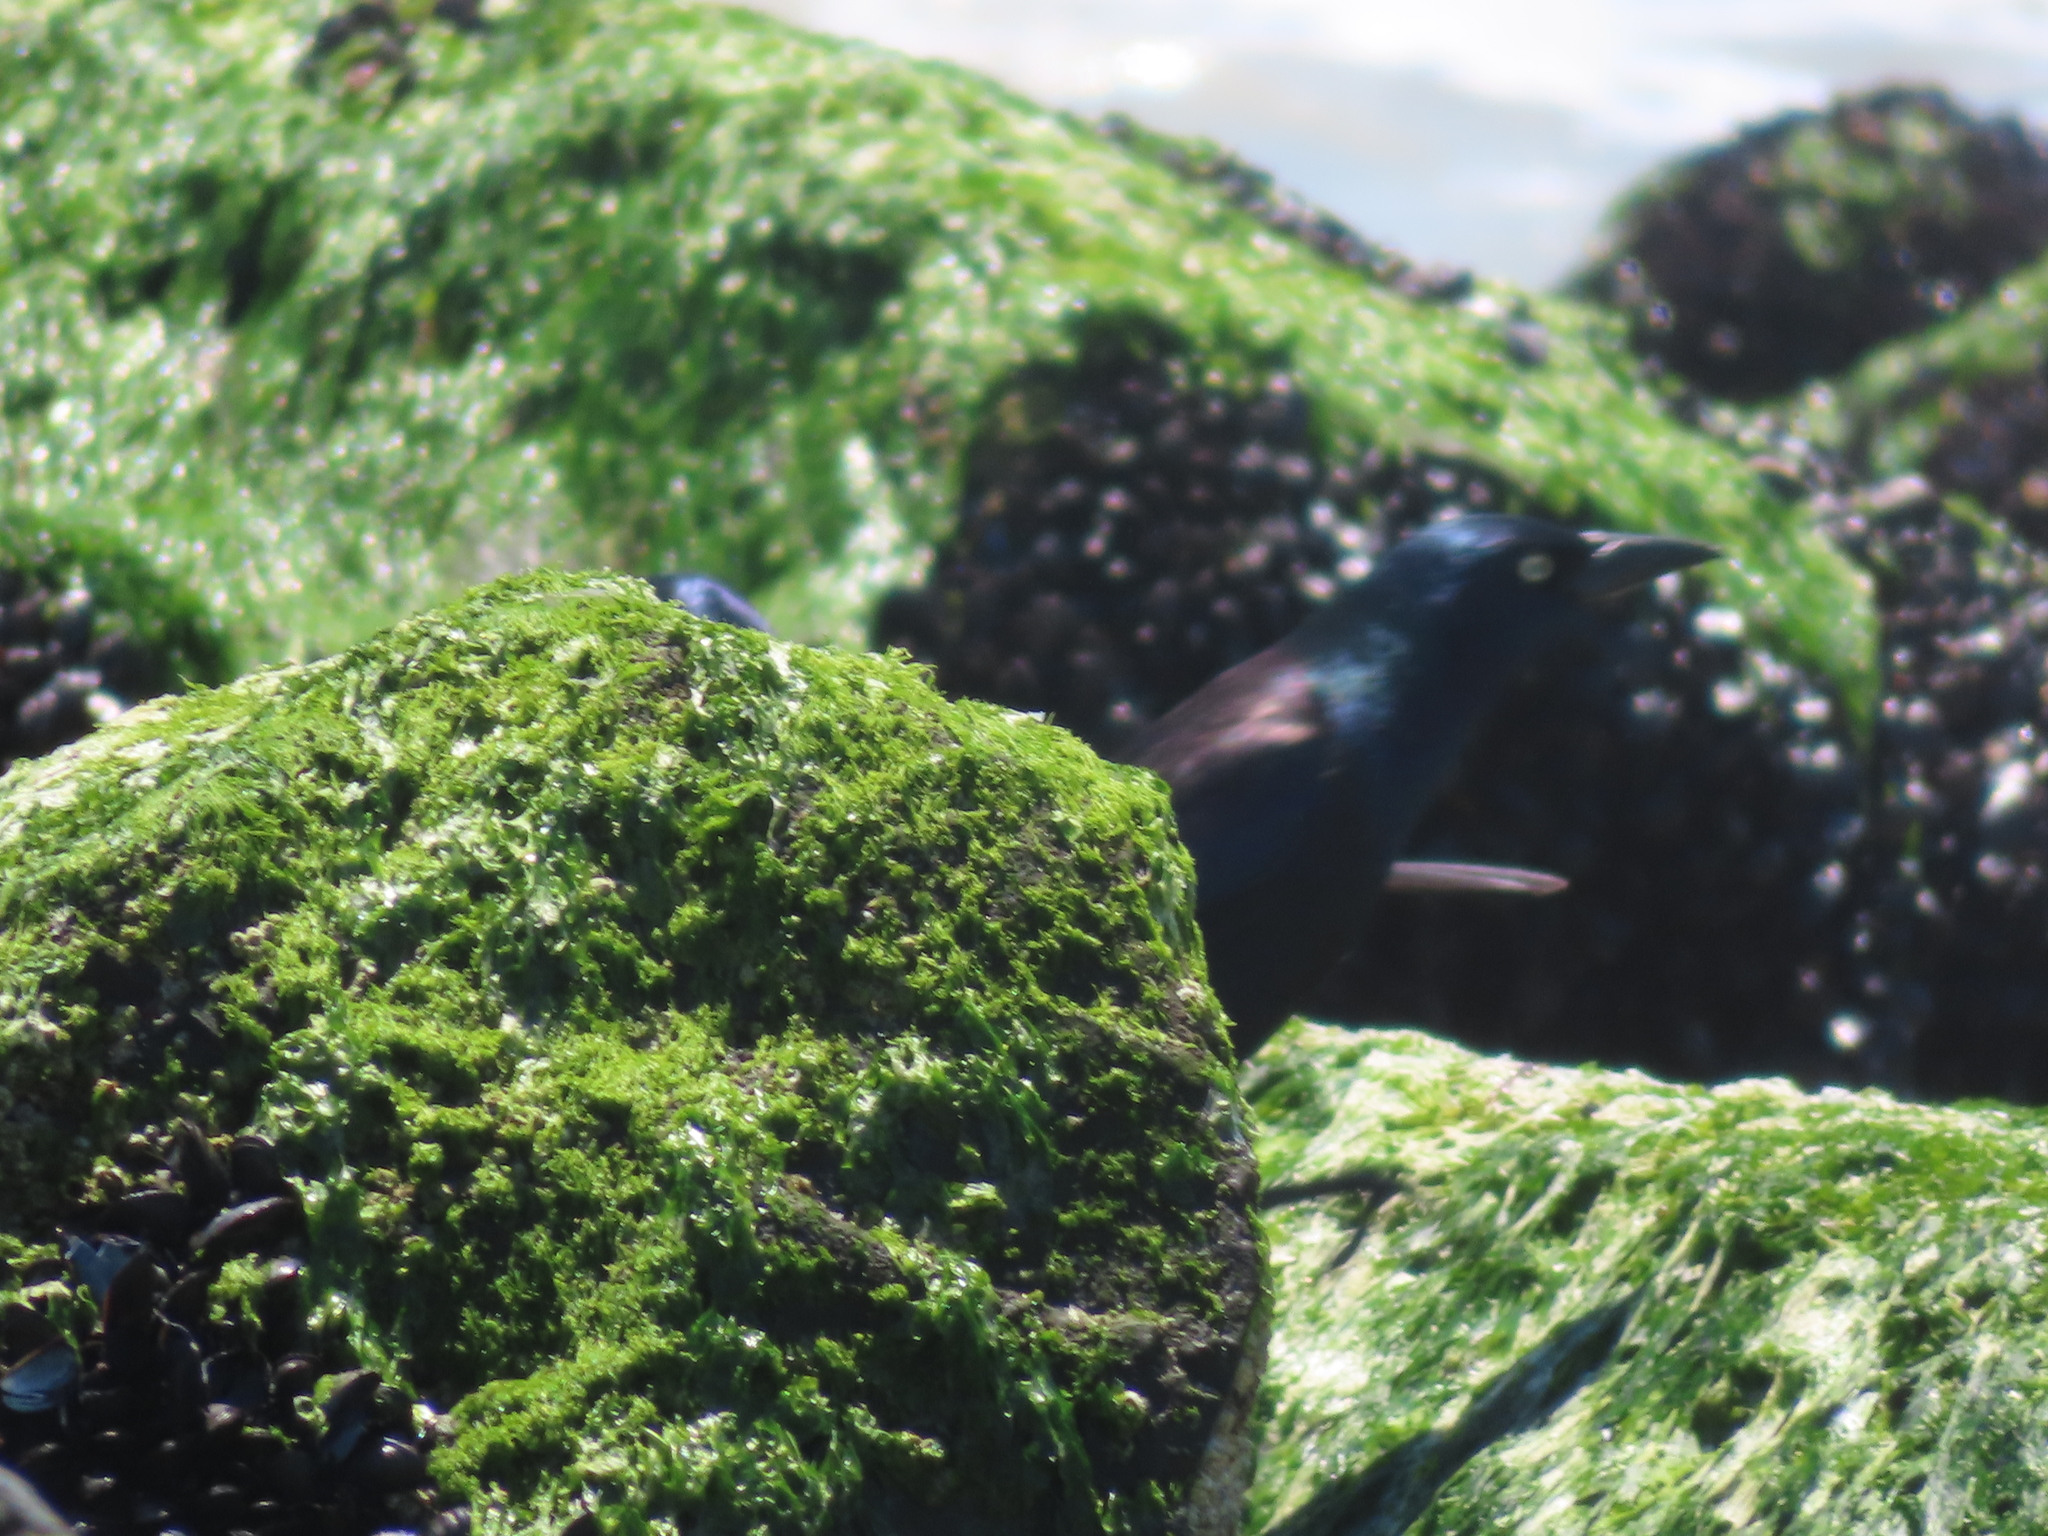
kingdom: Animalia
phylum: Chordata
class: Aves
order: Passeriformes
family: Icteridae
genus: Quiscalus
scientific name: Quiscalus quiscula
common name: Common grackle
